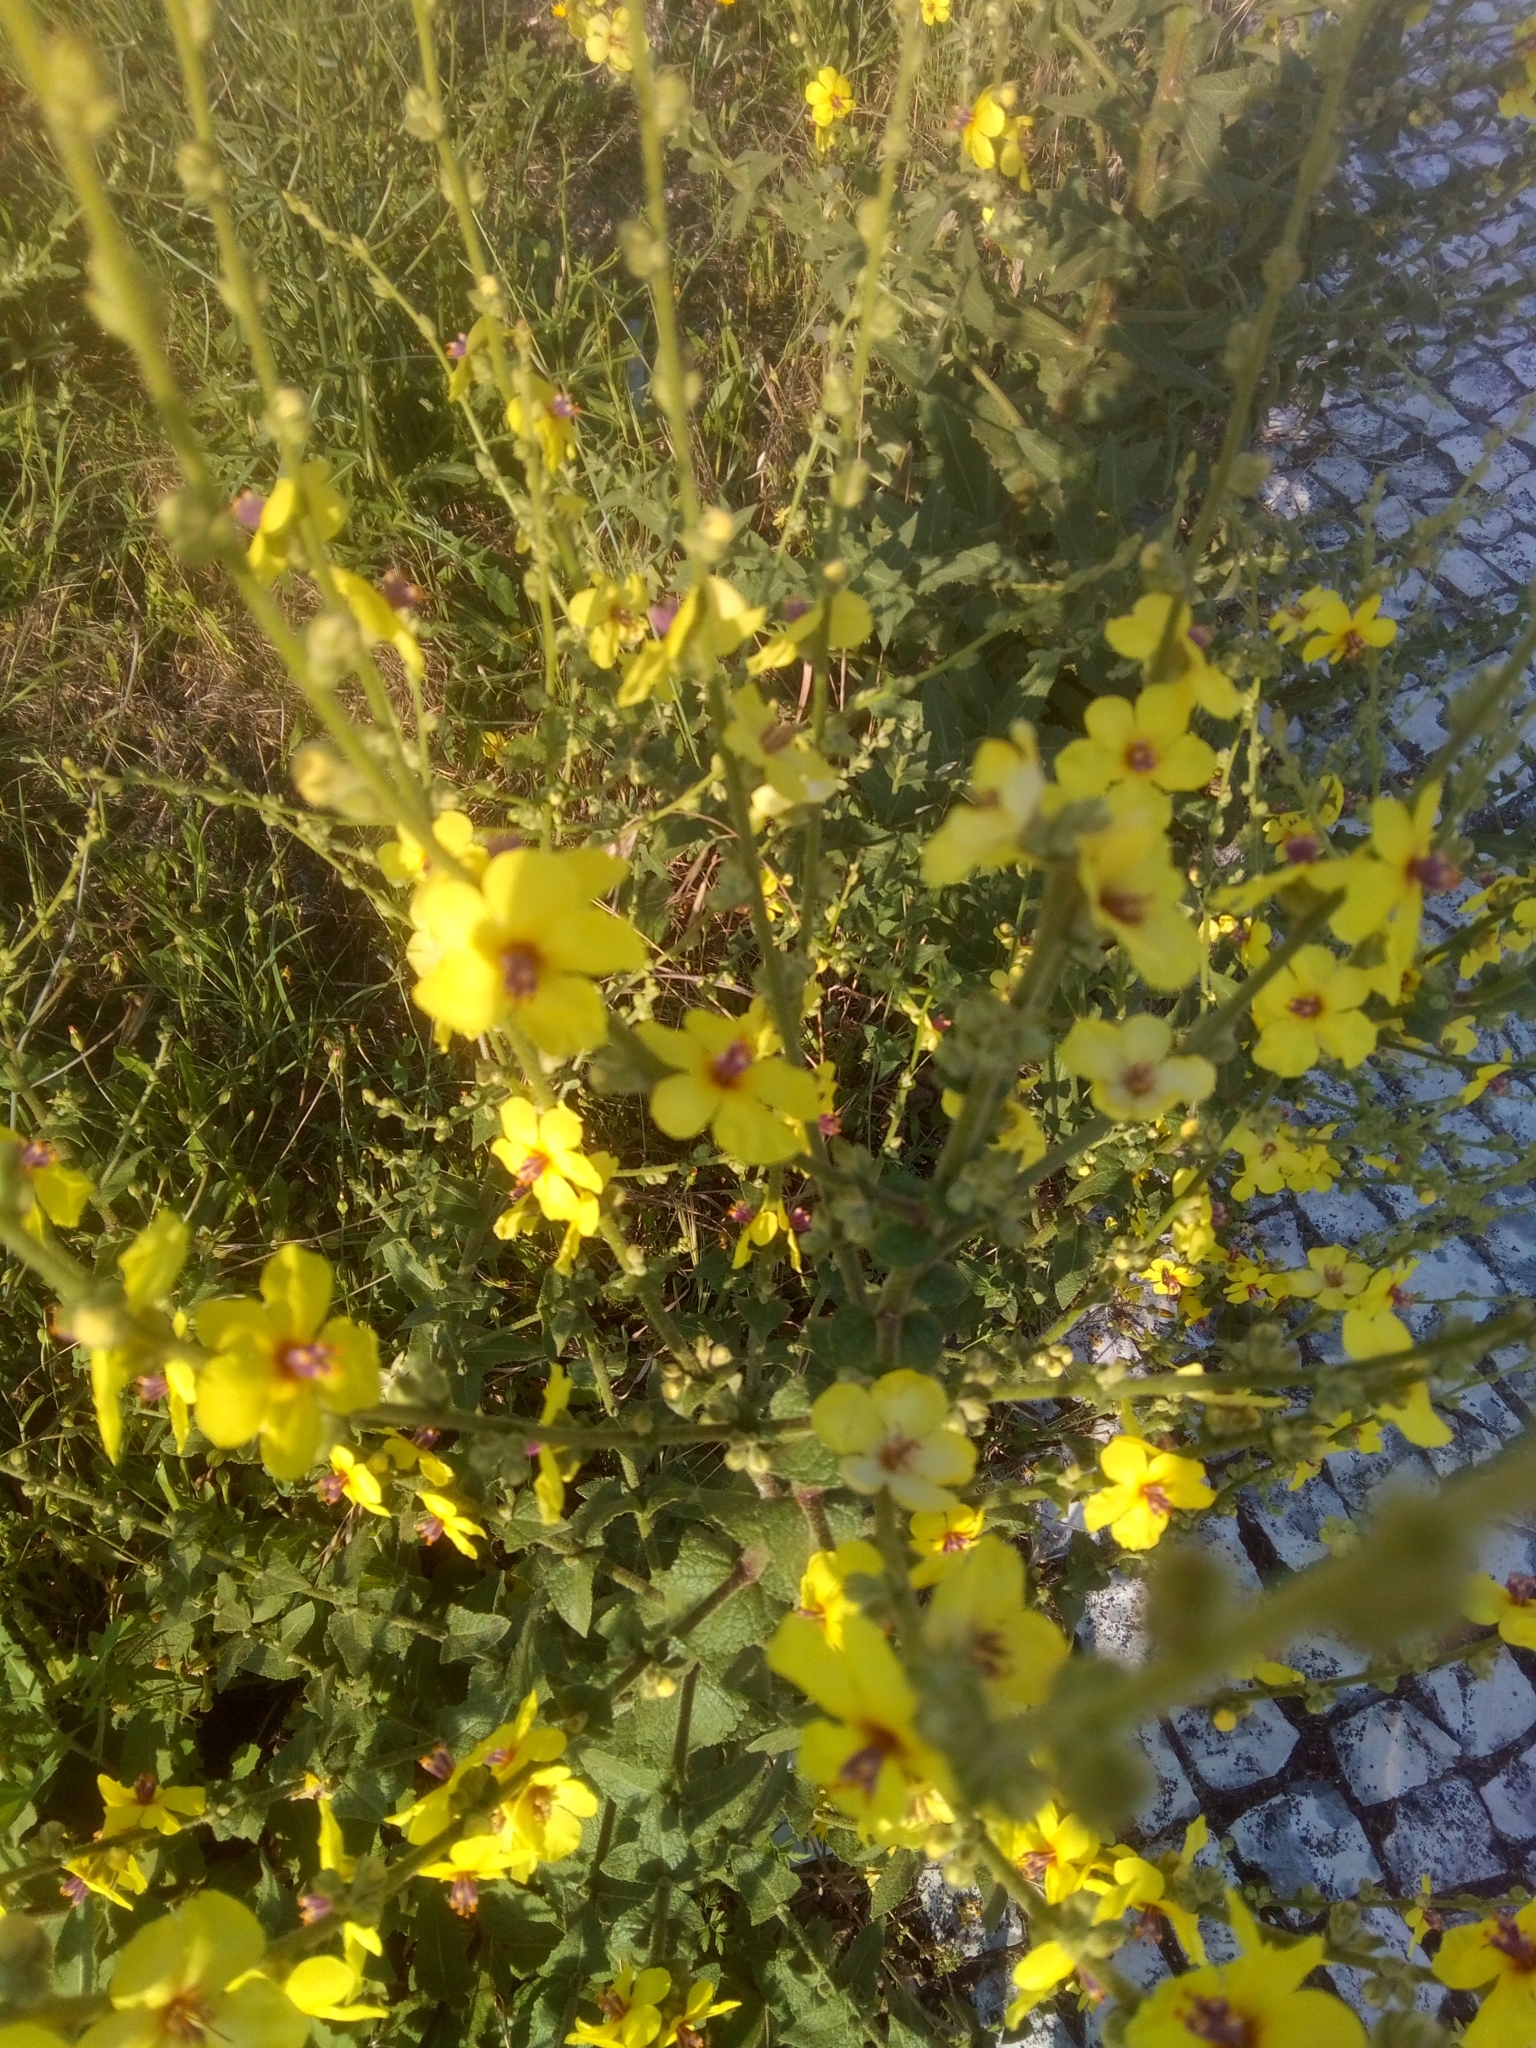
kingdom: Plantae
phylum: Tracheophyta
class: Magnoliopsida
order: Lamiales
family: Scrophulariaceae
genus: Verbascum
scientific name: Verbascum virgatum
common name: Twiggy mullein
